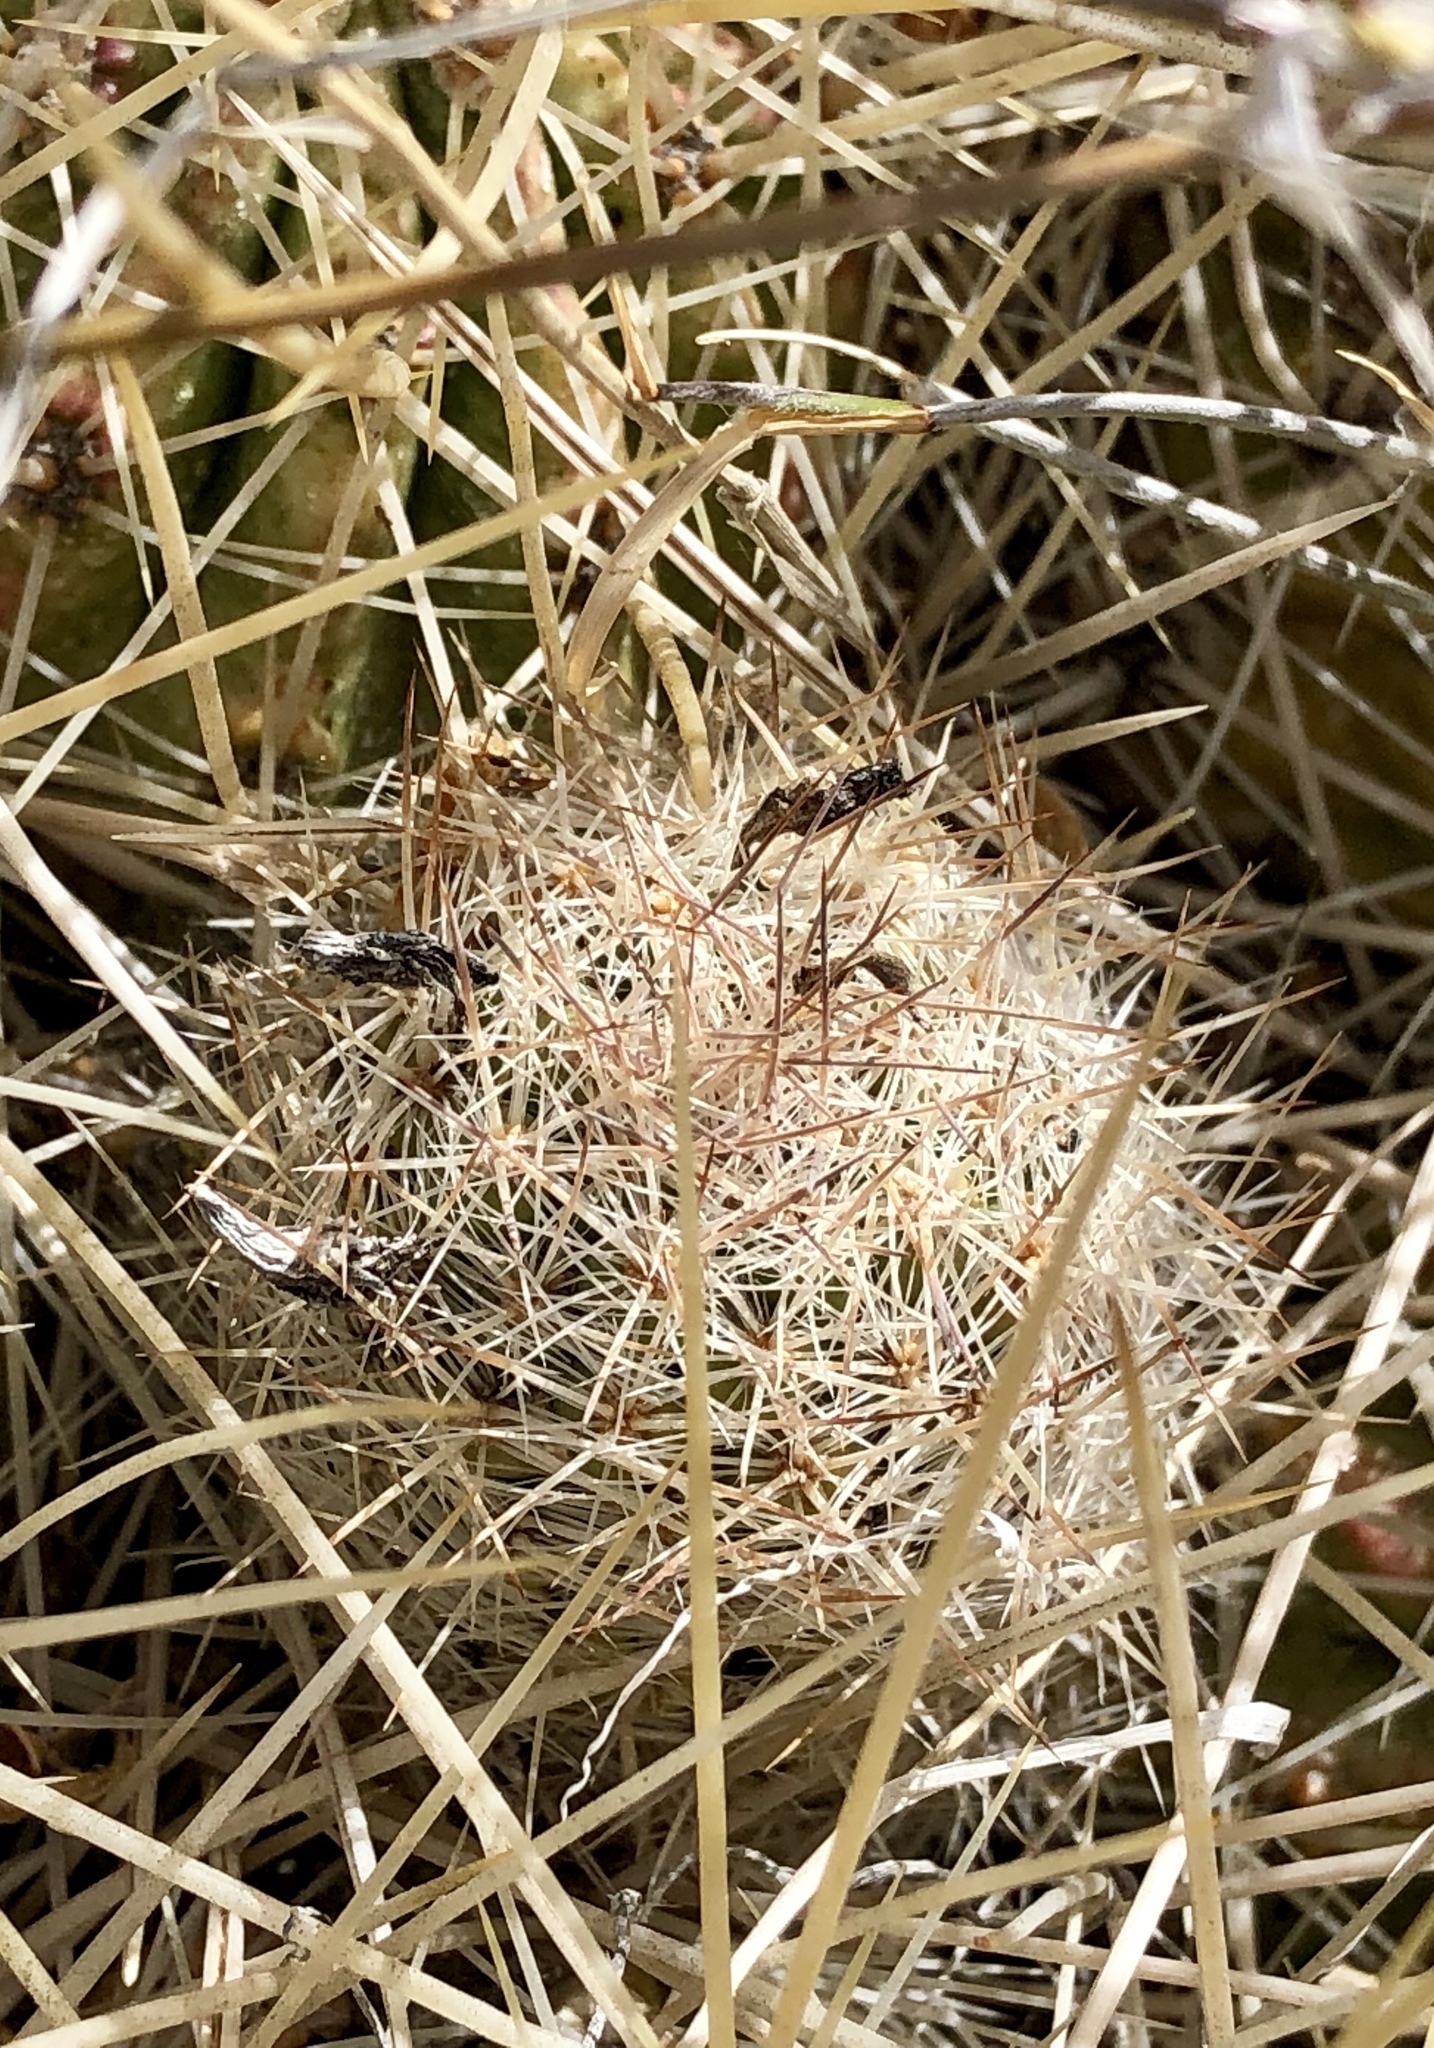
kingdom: Plantae
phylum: Tracheophyta
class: Magnoliopsida
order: Caryophyllales
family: Cactaceae
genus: Pelecyphora
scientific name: Pelecyphora tuberculosa
